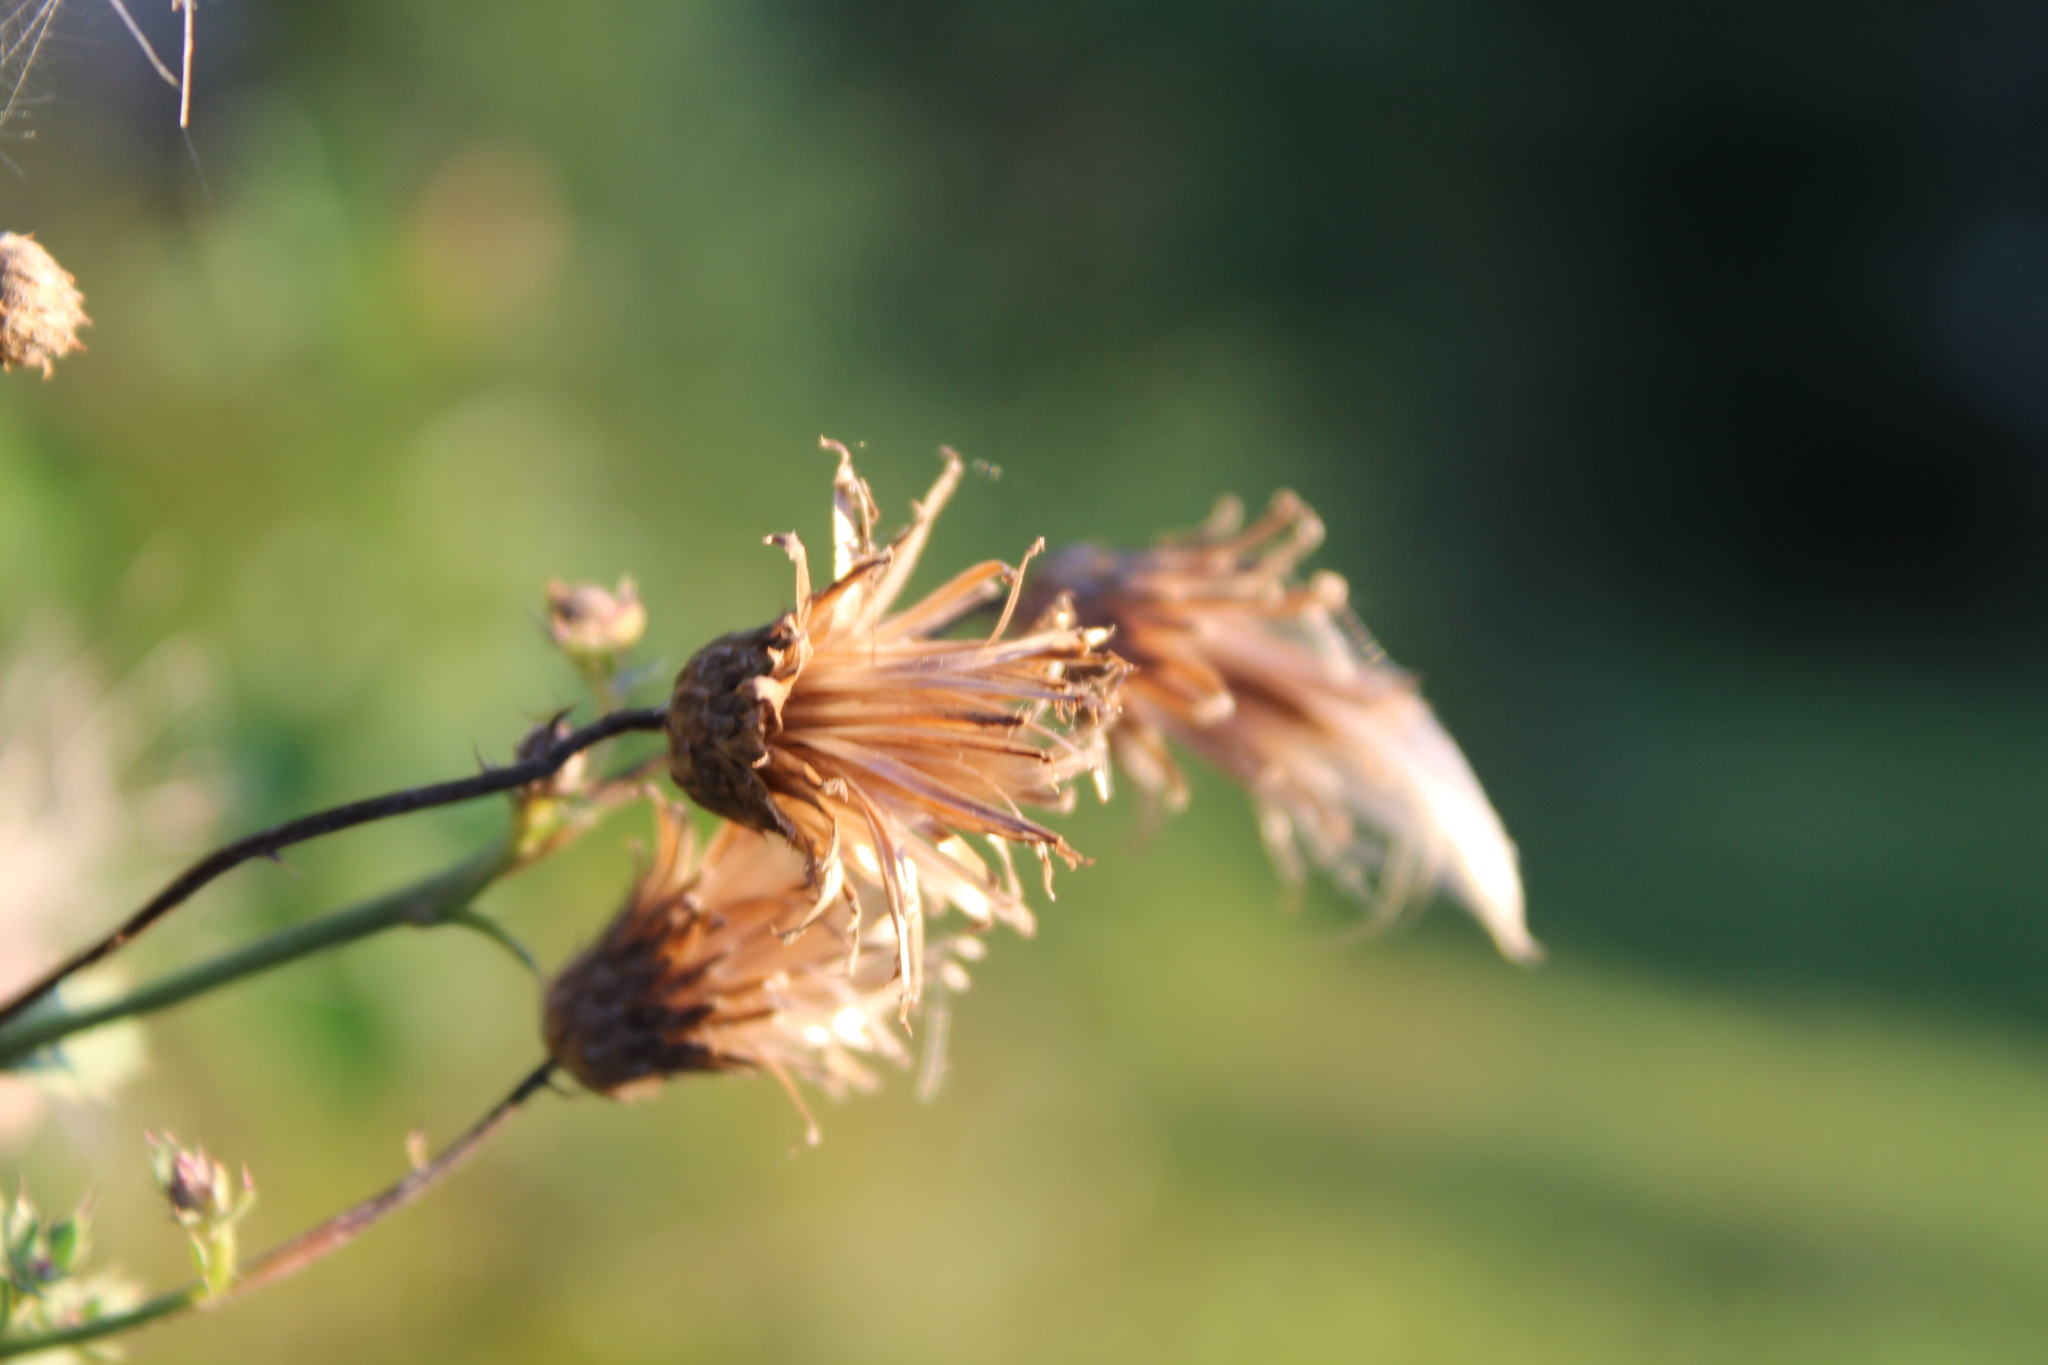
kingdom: Plantae
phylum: Tracheophyta
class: Magnoliopsida
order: Asterales
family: Asteraceae
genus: Cirsium
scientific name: Cirsium arvense
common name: Creeping thistle
